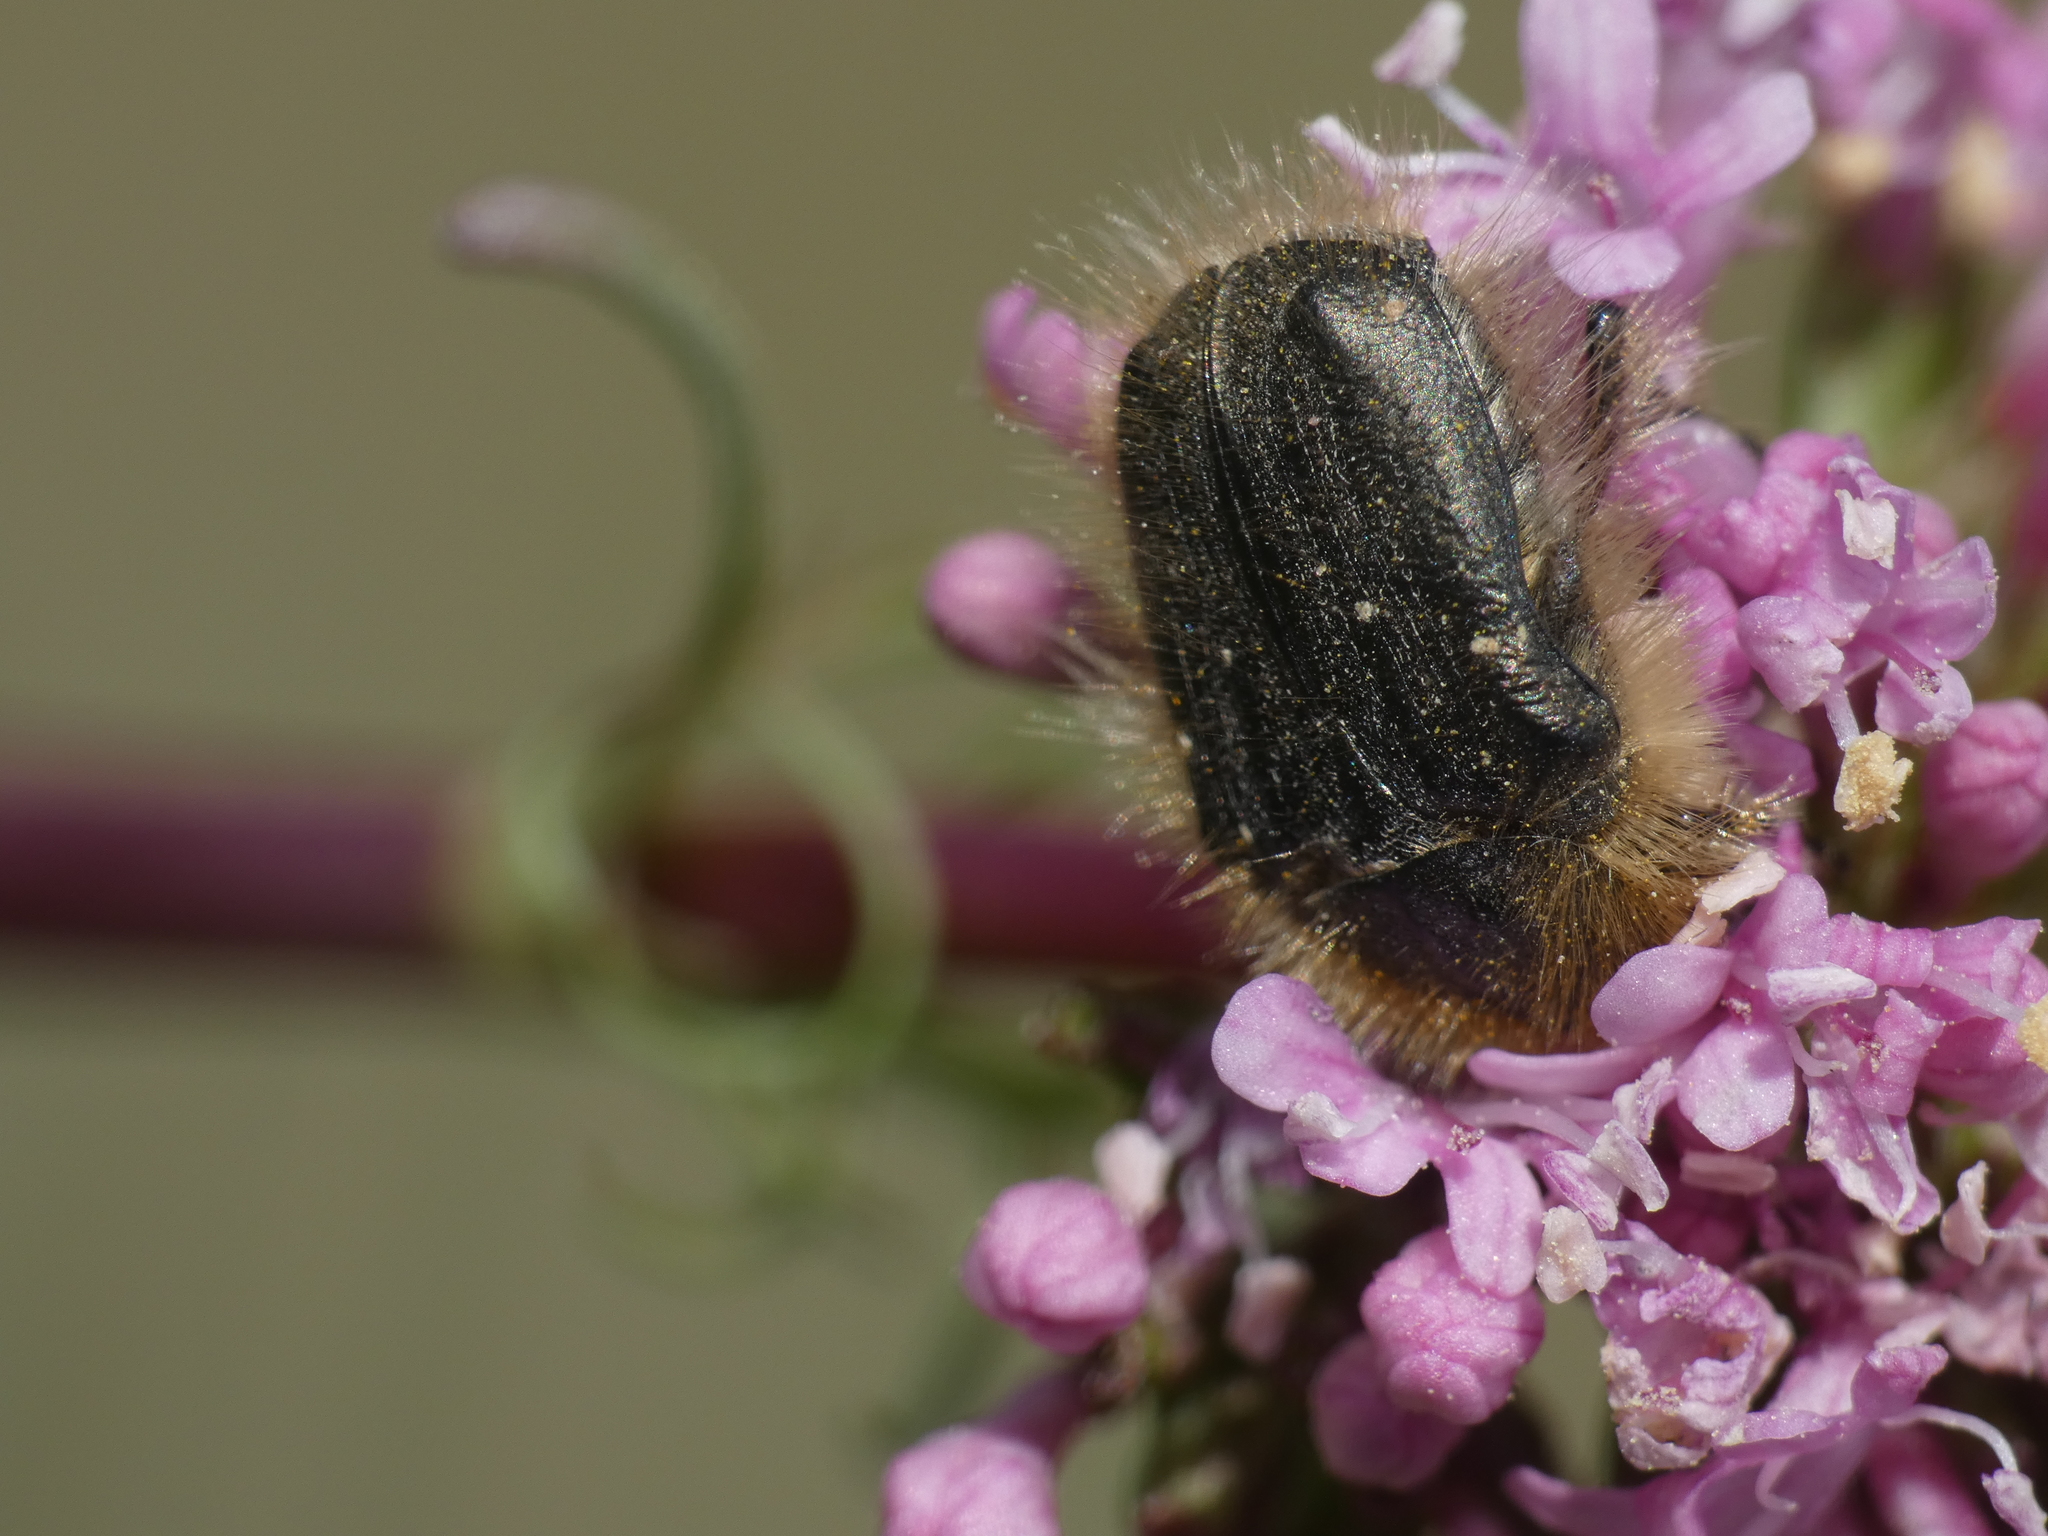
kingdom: Animalia
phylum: Arthropoda
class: Insecta
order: Coleoptera
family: Scarabaeidae
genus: Tropinota
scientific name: Tropinota hirta
